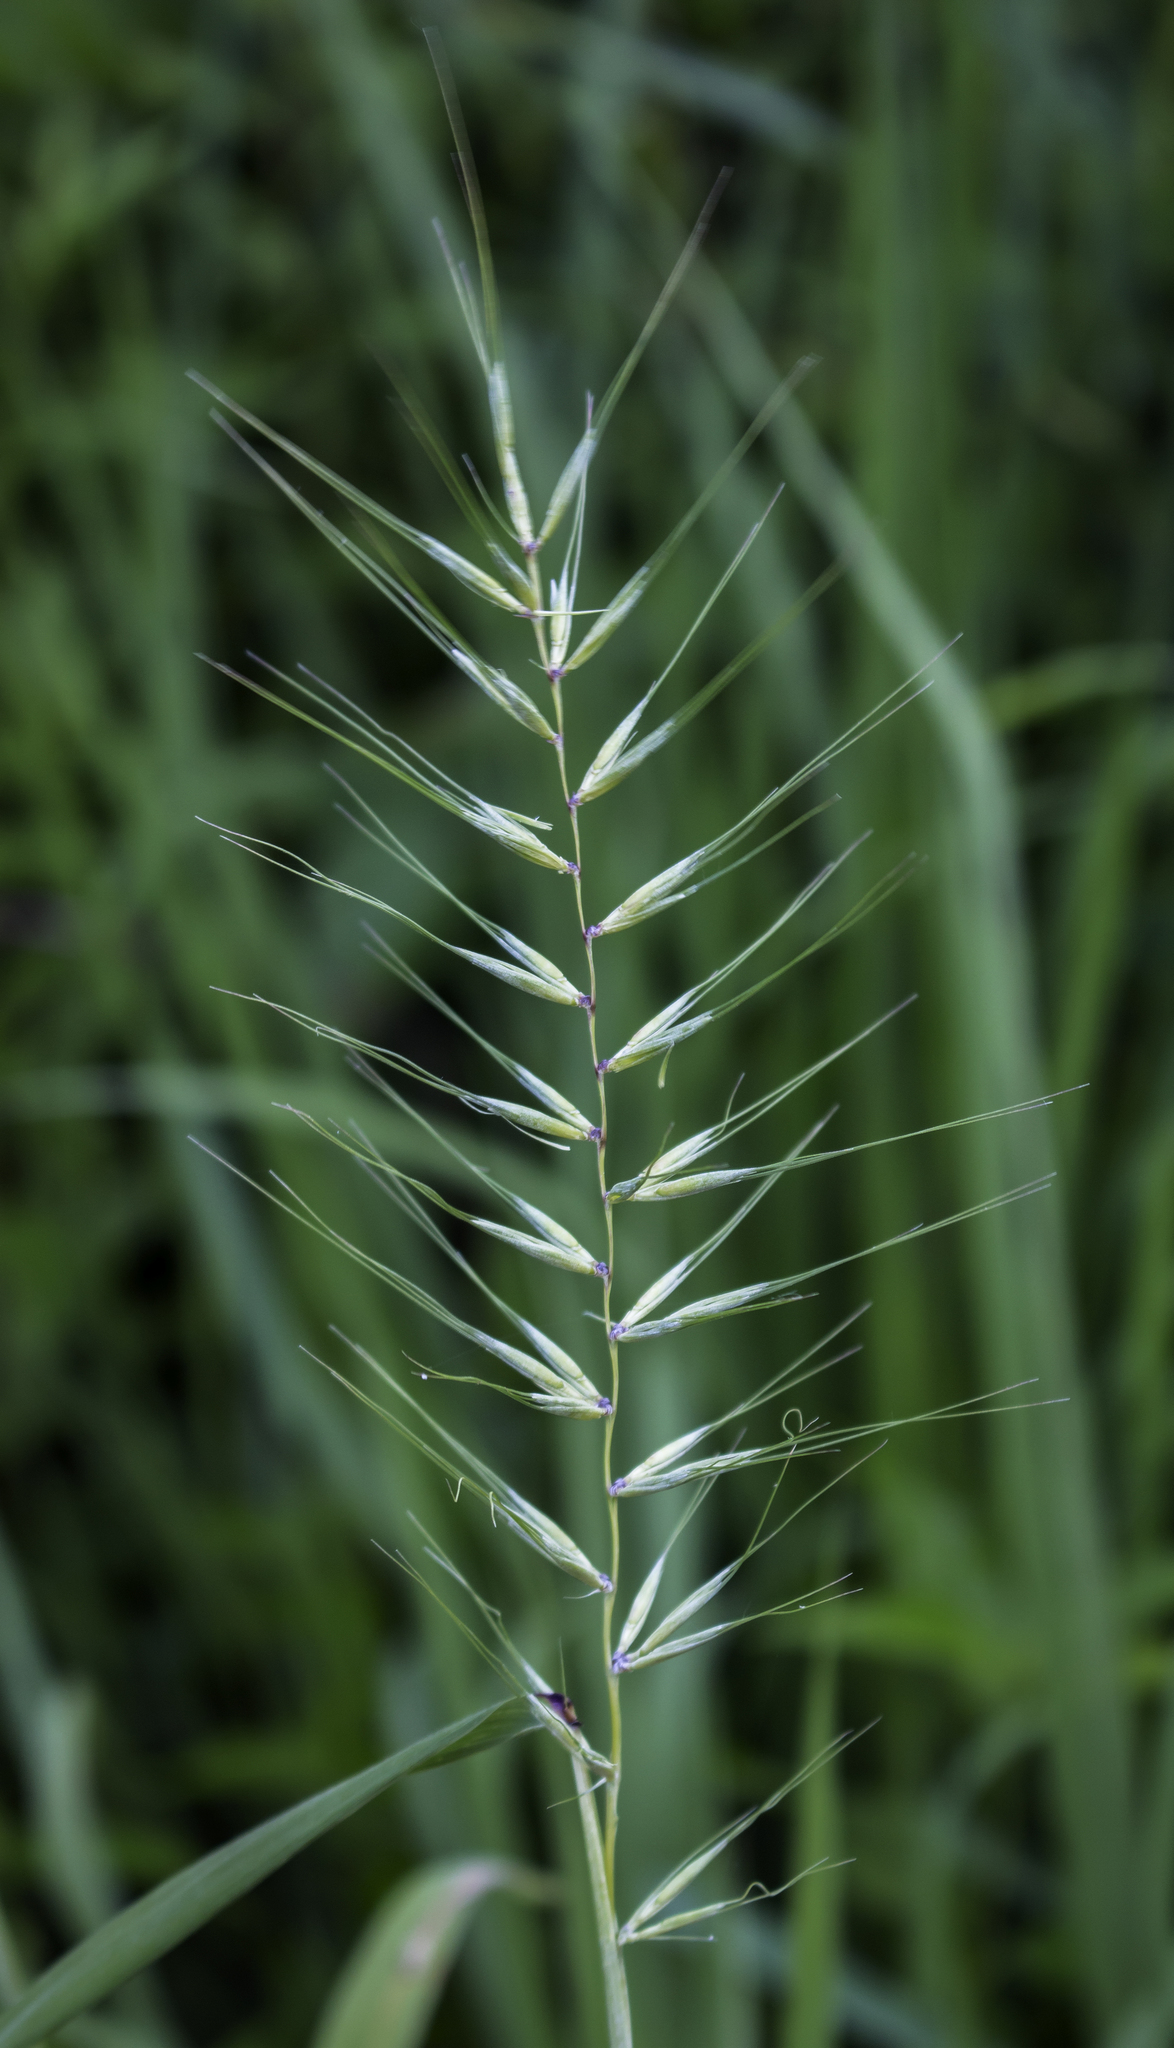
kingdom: Plantae
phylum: Tracheophyta
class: Liliopsida
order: Poales
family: Poaceae
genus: Elymus
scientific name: Elymus hystrix
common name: Bottlebrush grass
